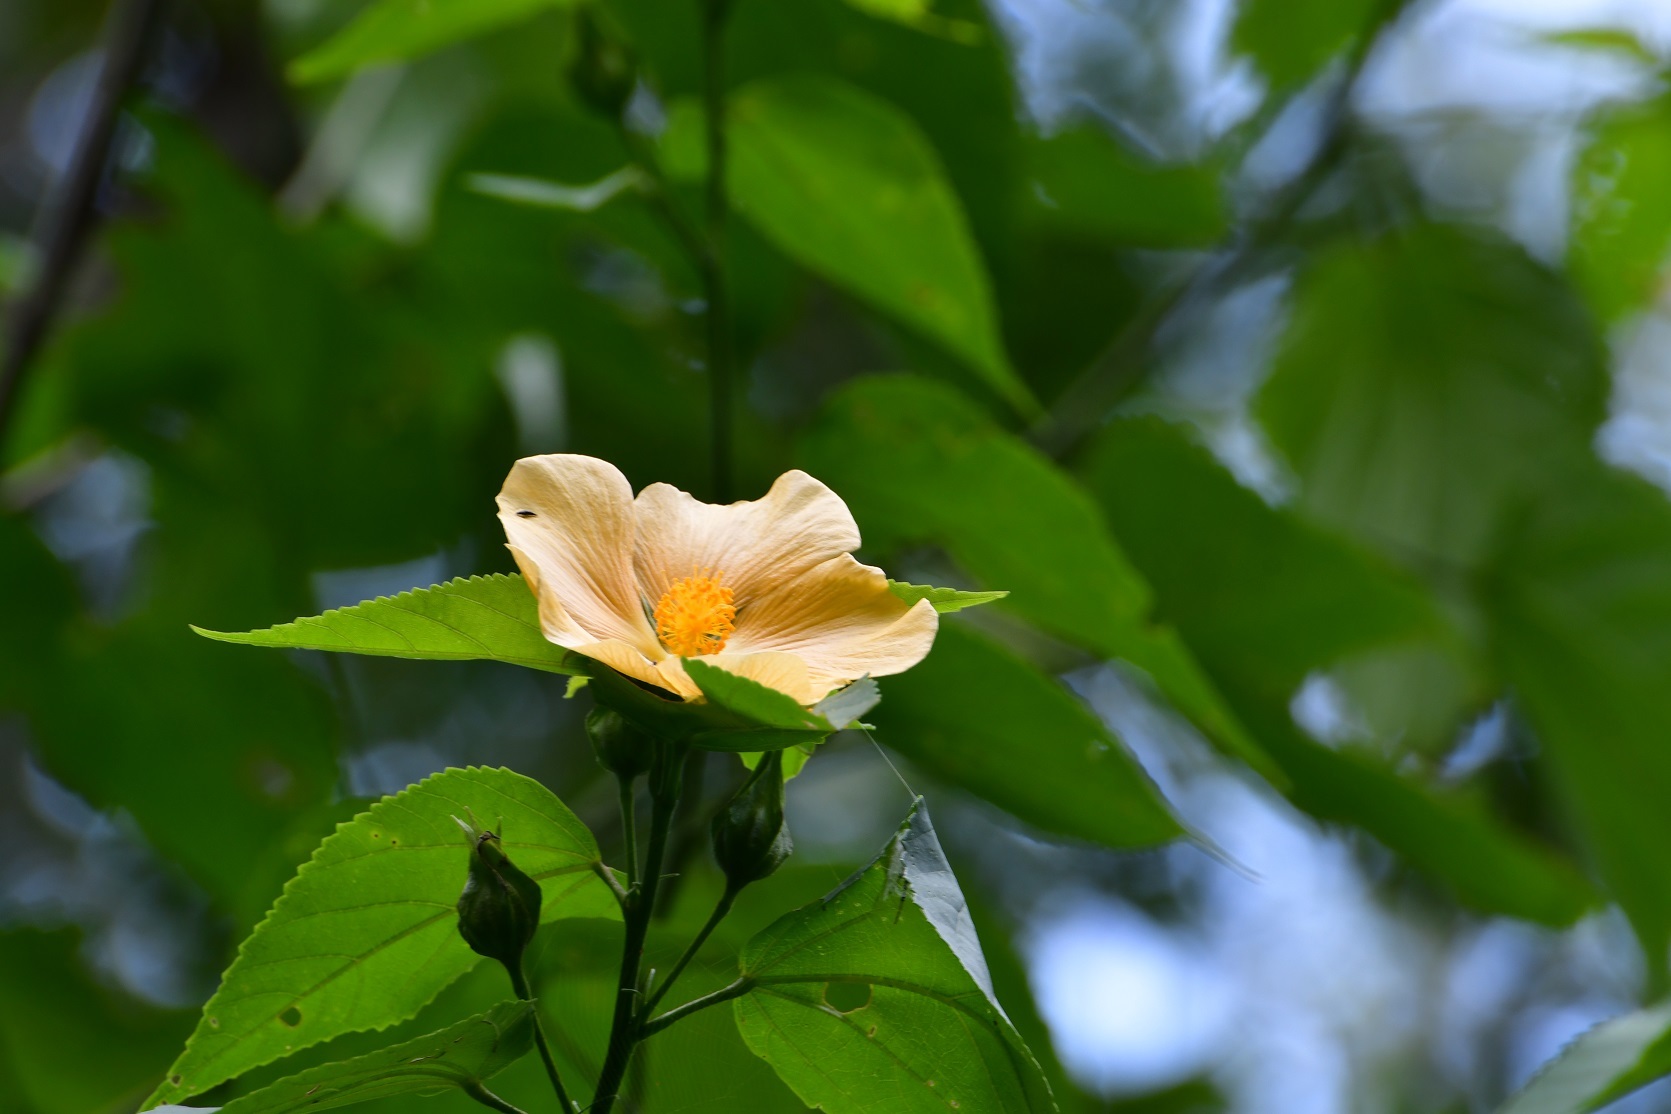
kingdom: Plantae
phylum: Tracheophyta
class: Magnoliopsida
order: Malvales
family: Malvaceae
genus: Dendrosida
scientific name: Dendrosida sharpiana
